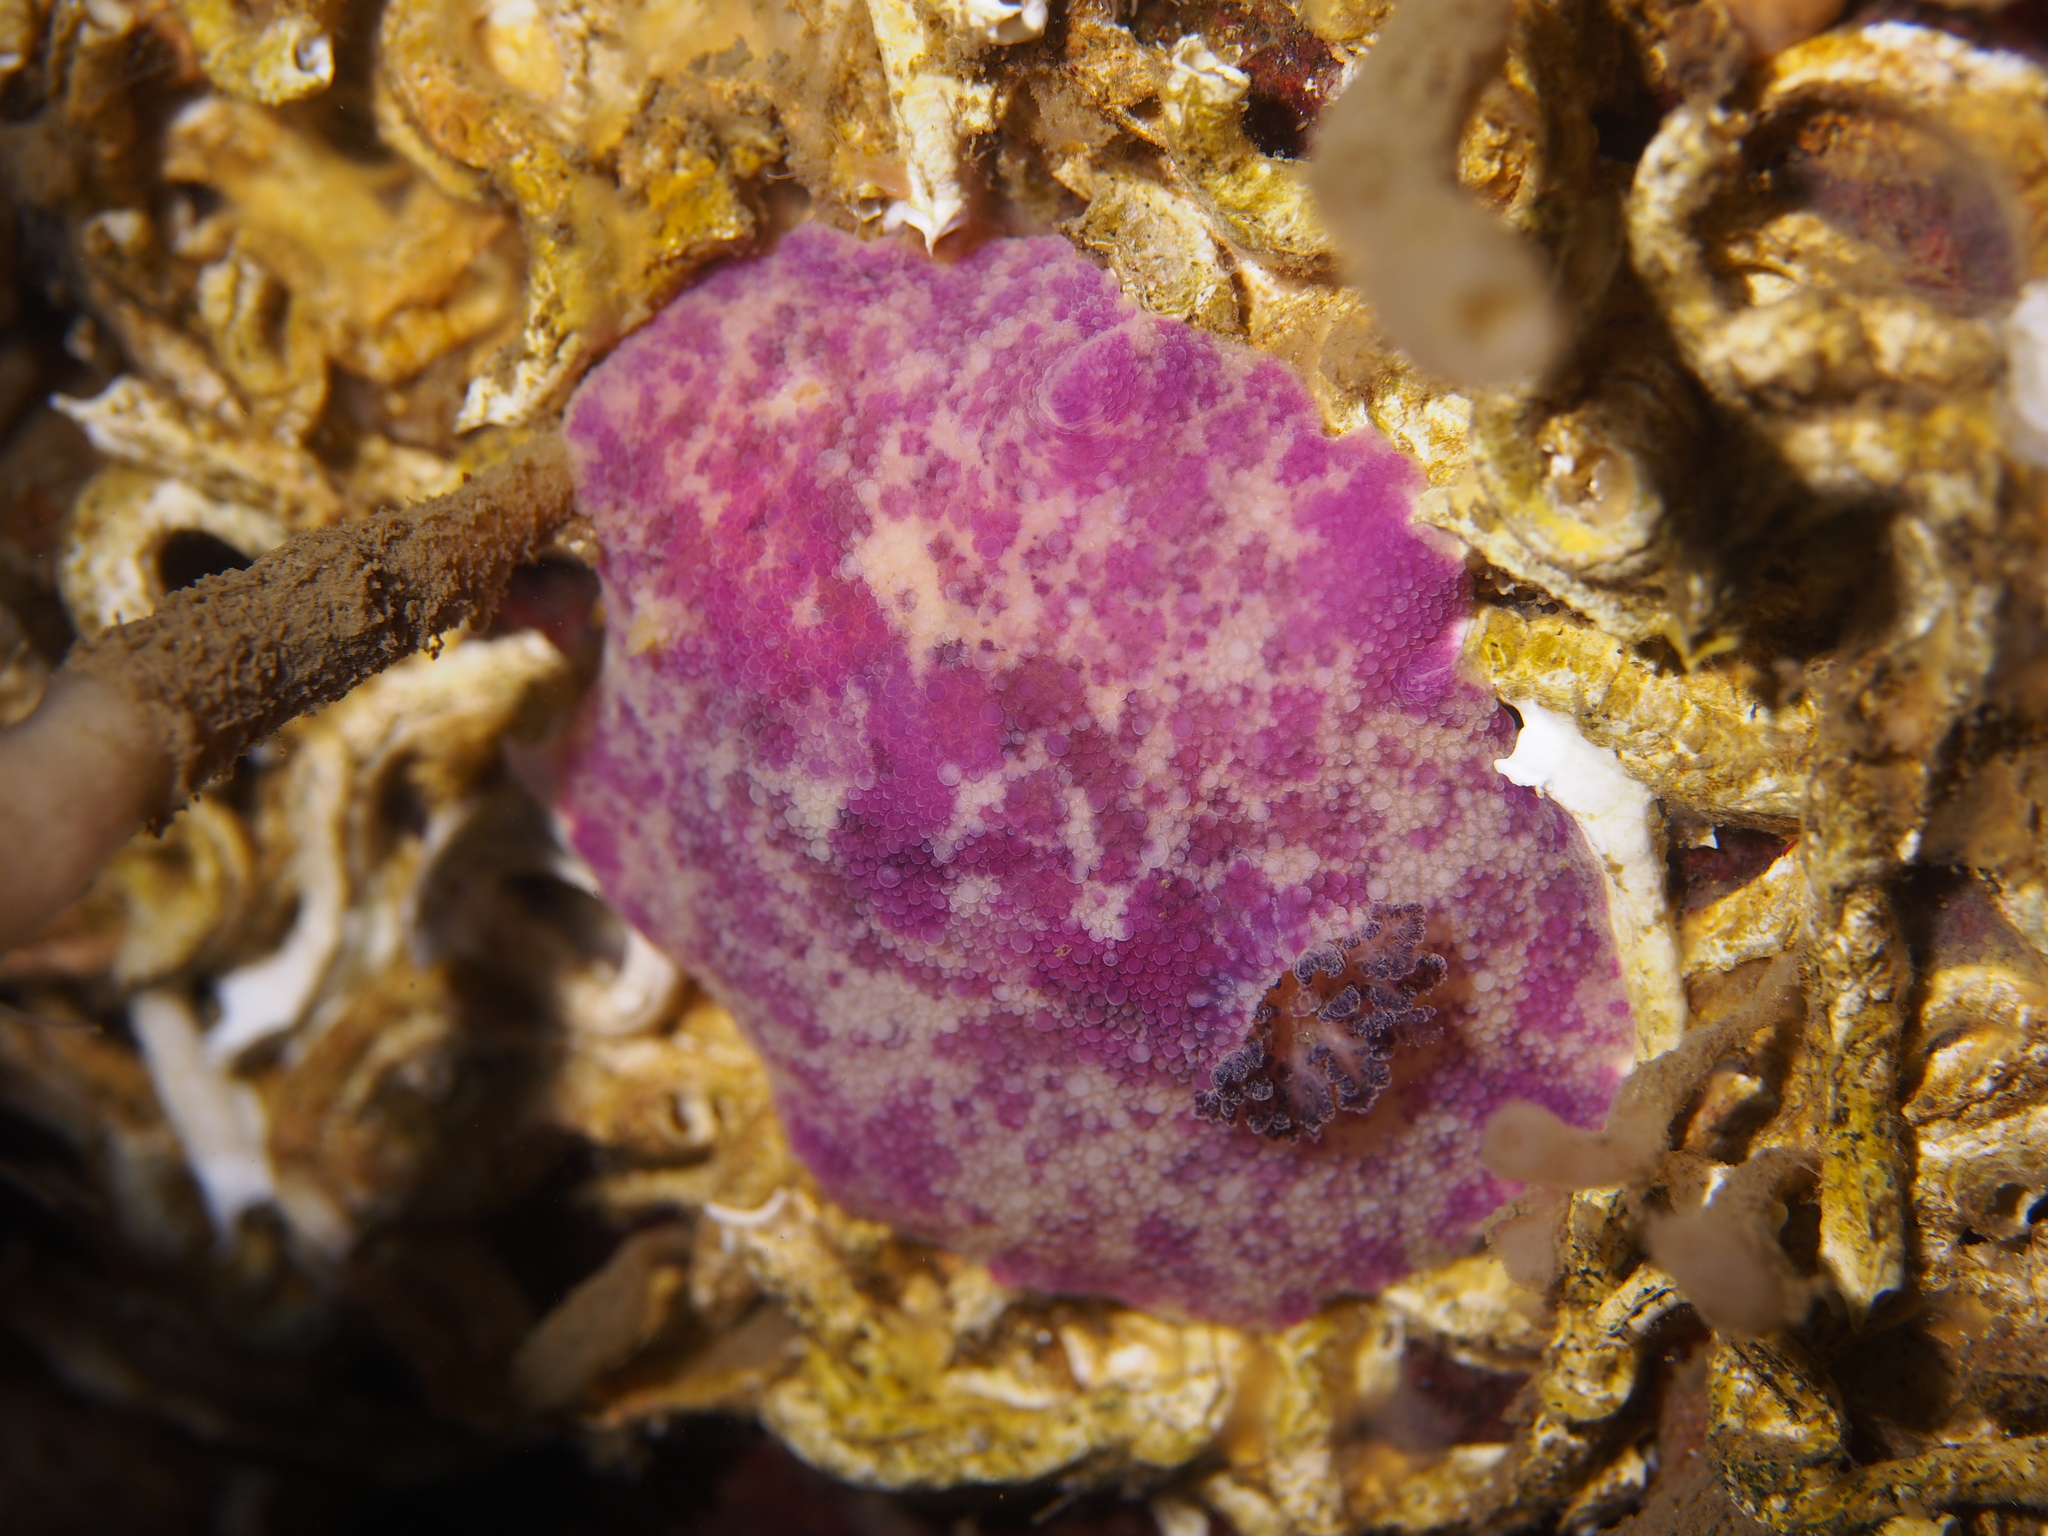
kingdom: Animalia
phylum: Mollusca
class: Gastropoda
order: Nudibranchia
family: Dorididae
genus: Doris
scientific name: Doris pseudoargus
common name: Sea lemon
